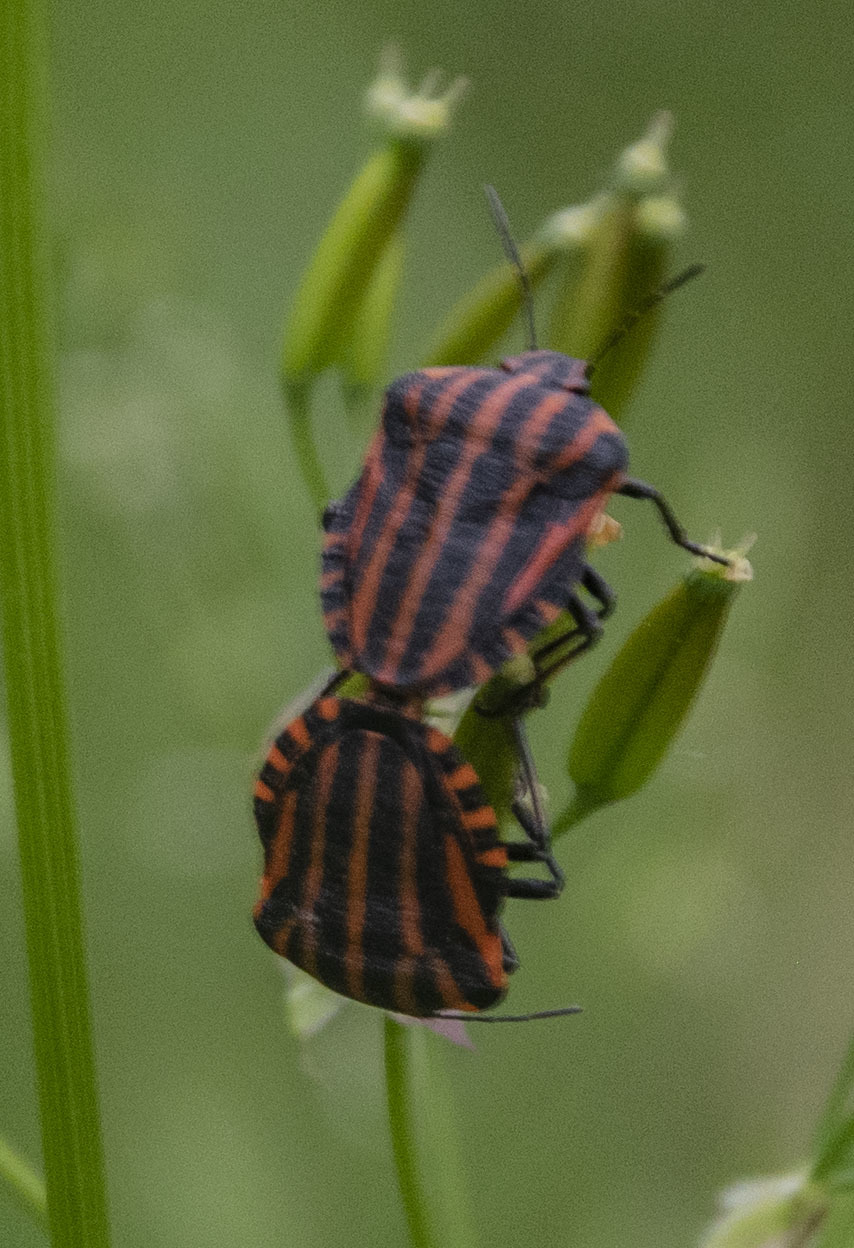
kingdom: Animalia
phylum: Arthropoda
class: Insecta
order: Hemiptera
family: Pentatomidae
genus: Graphosoma
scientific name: Graphosoma italicum
